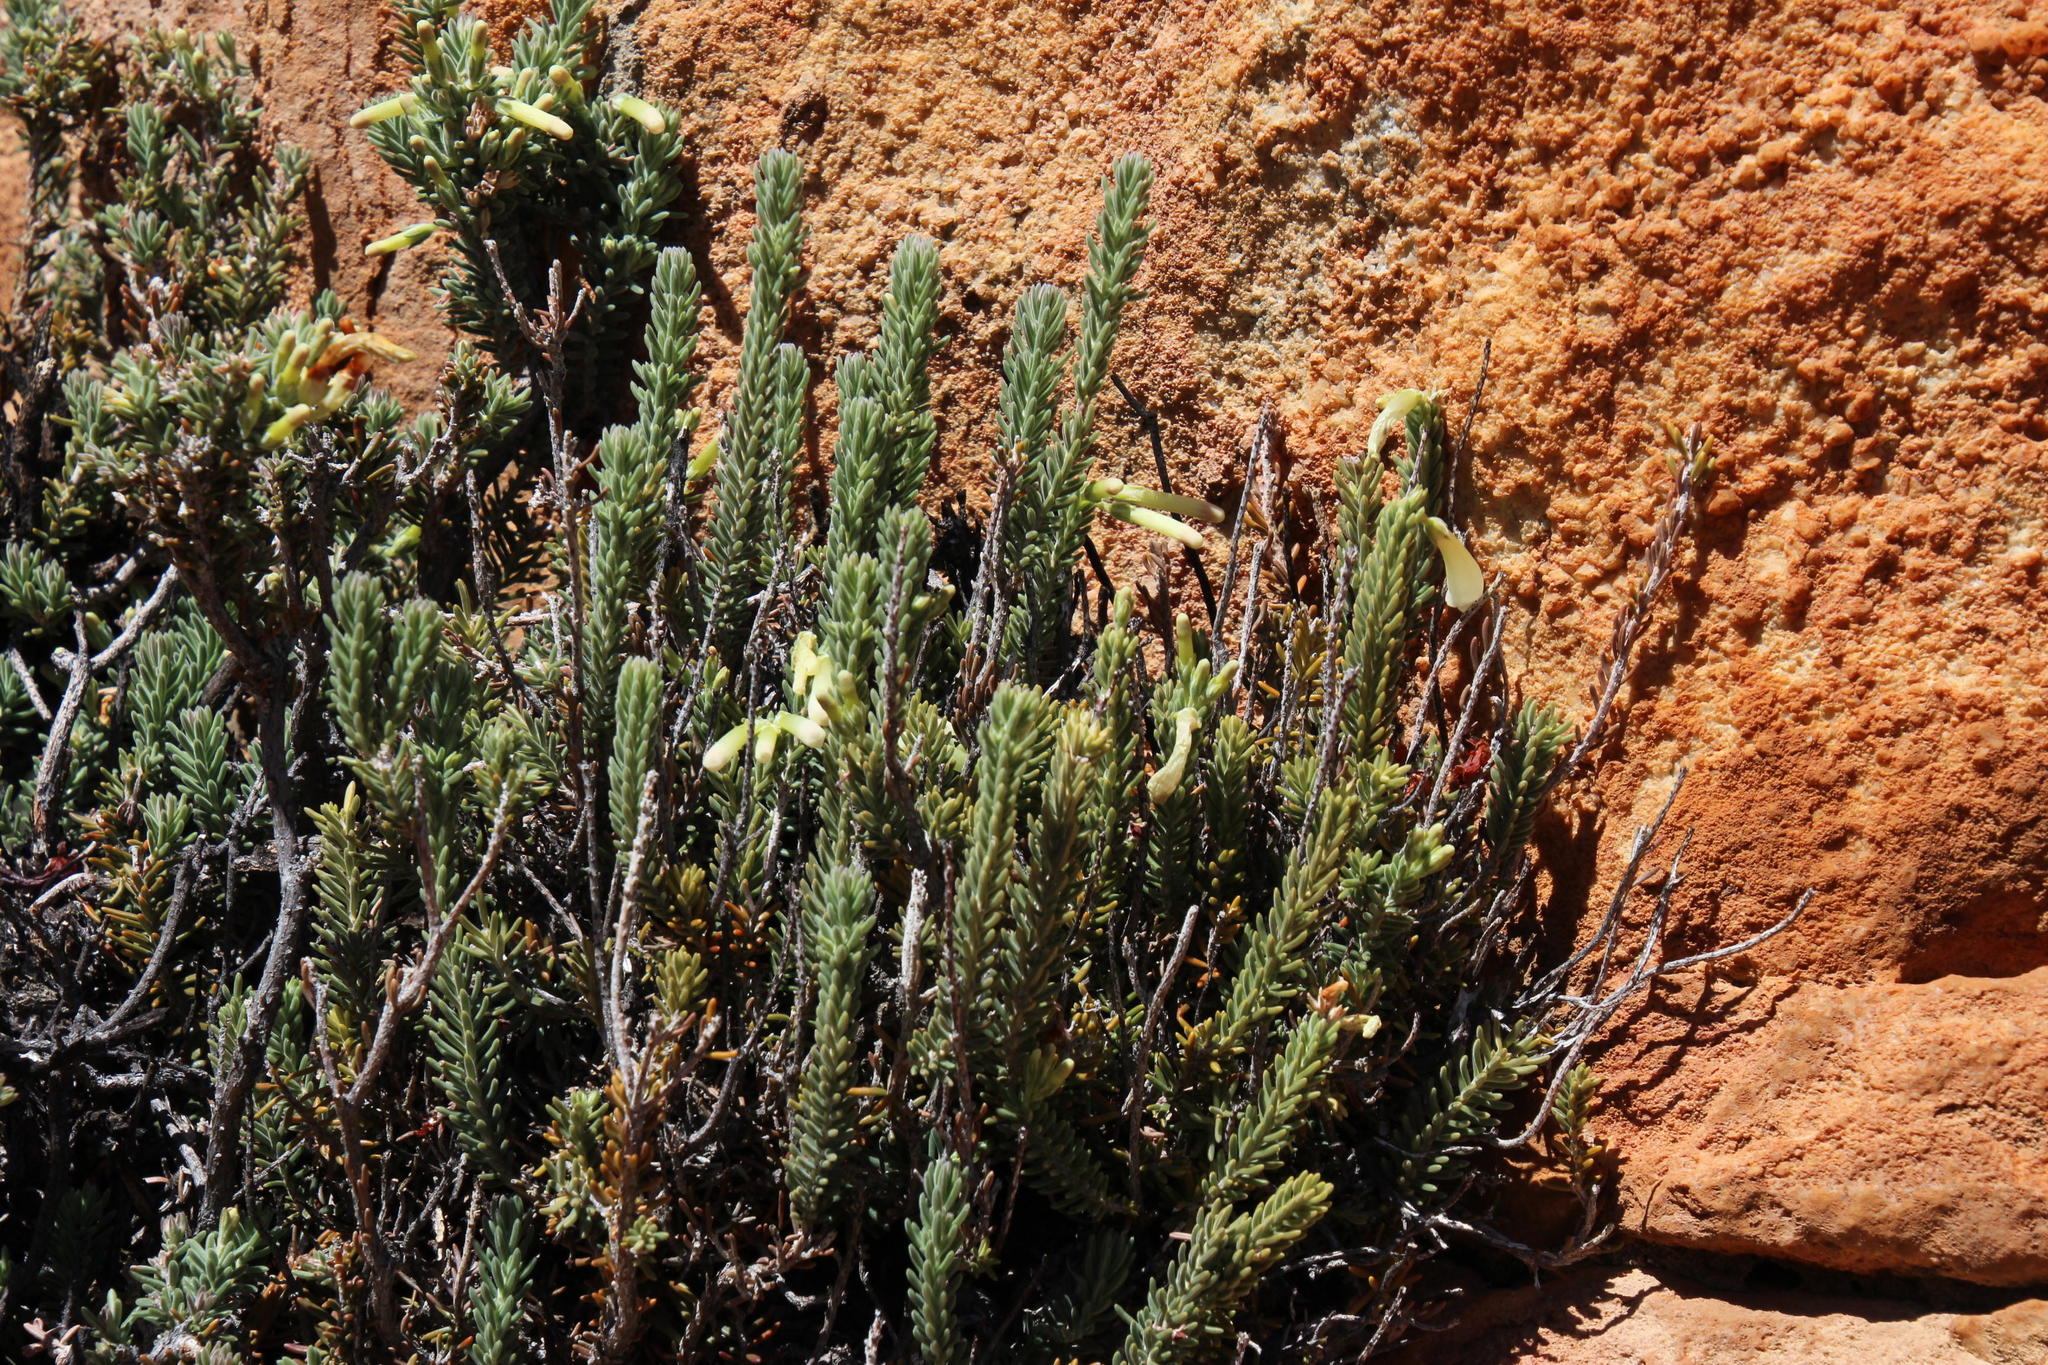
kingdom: Plantae
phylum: Tracheophyta
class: Magnoliopsida
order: Ericales
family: Ericaceae
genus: Erica
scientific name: Erica maximiliani
